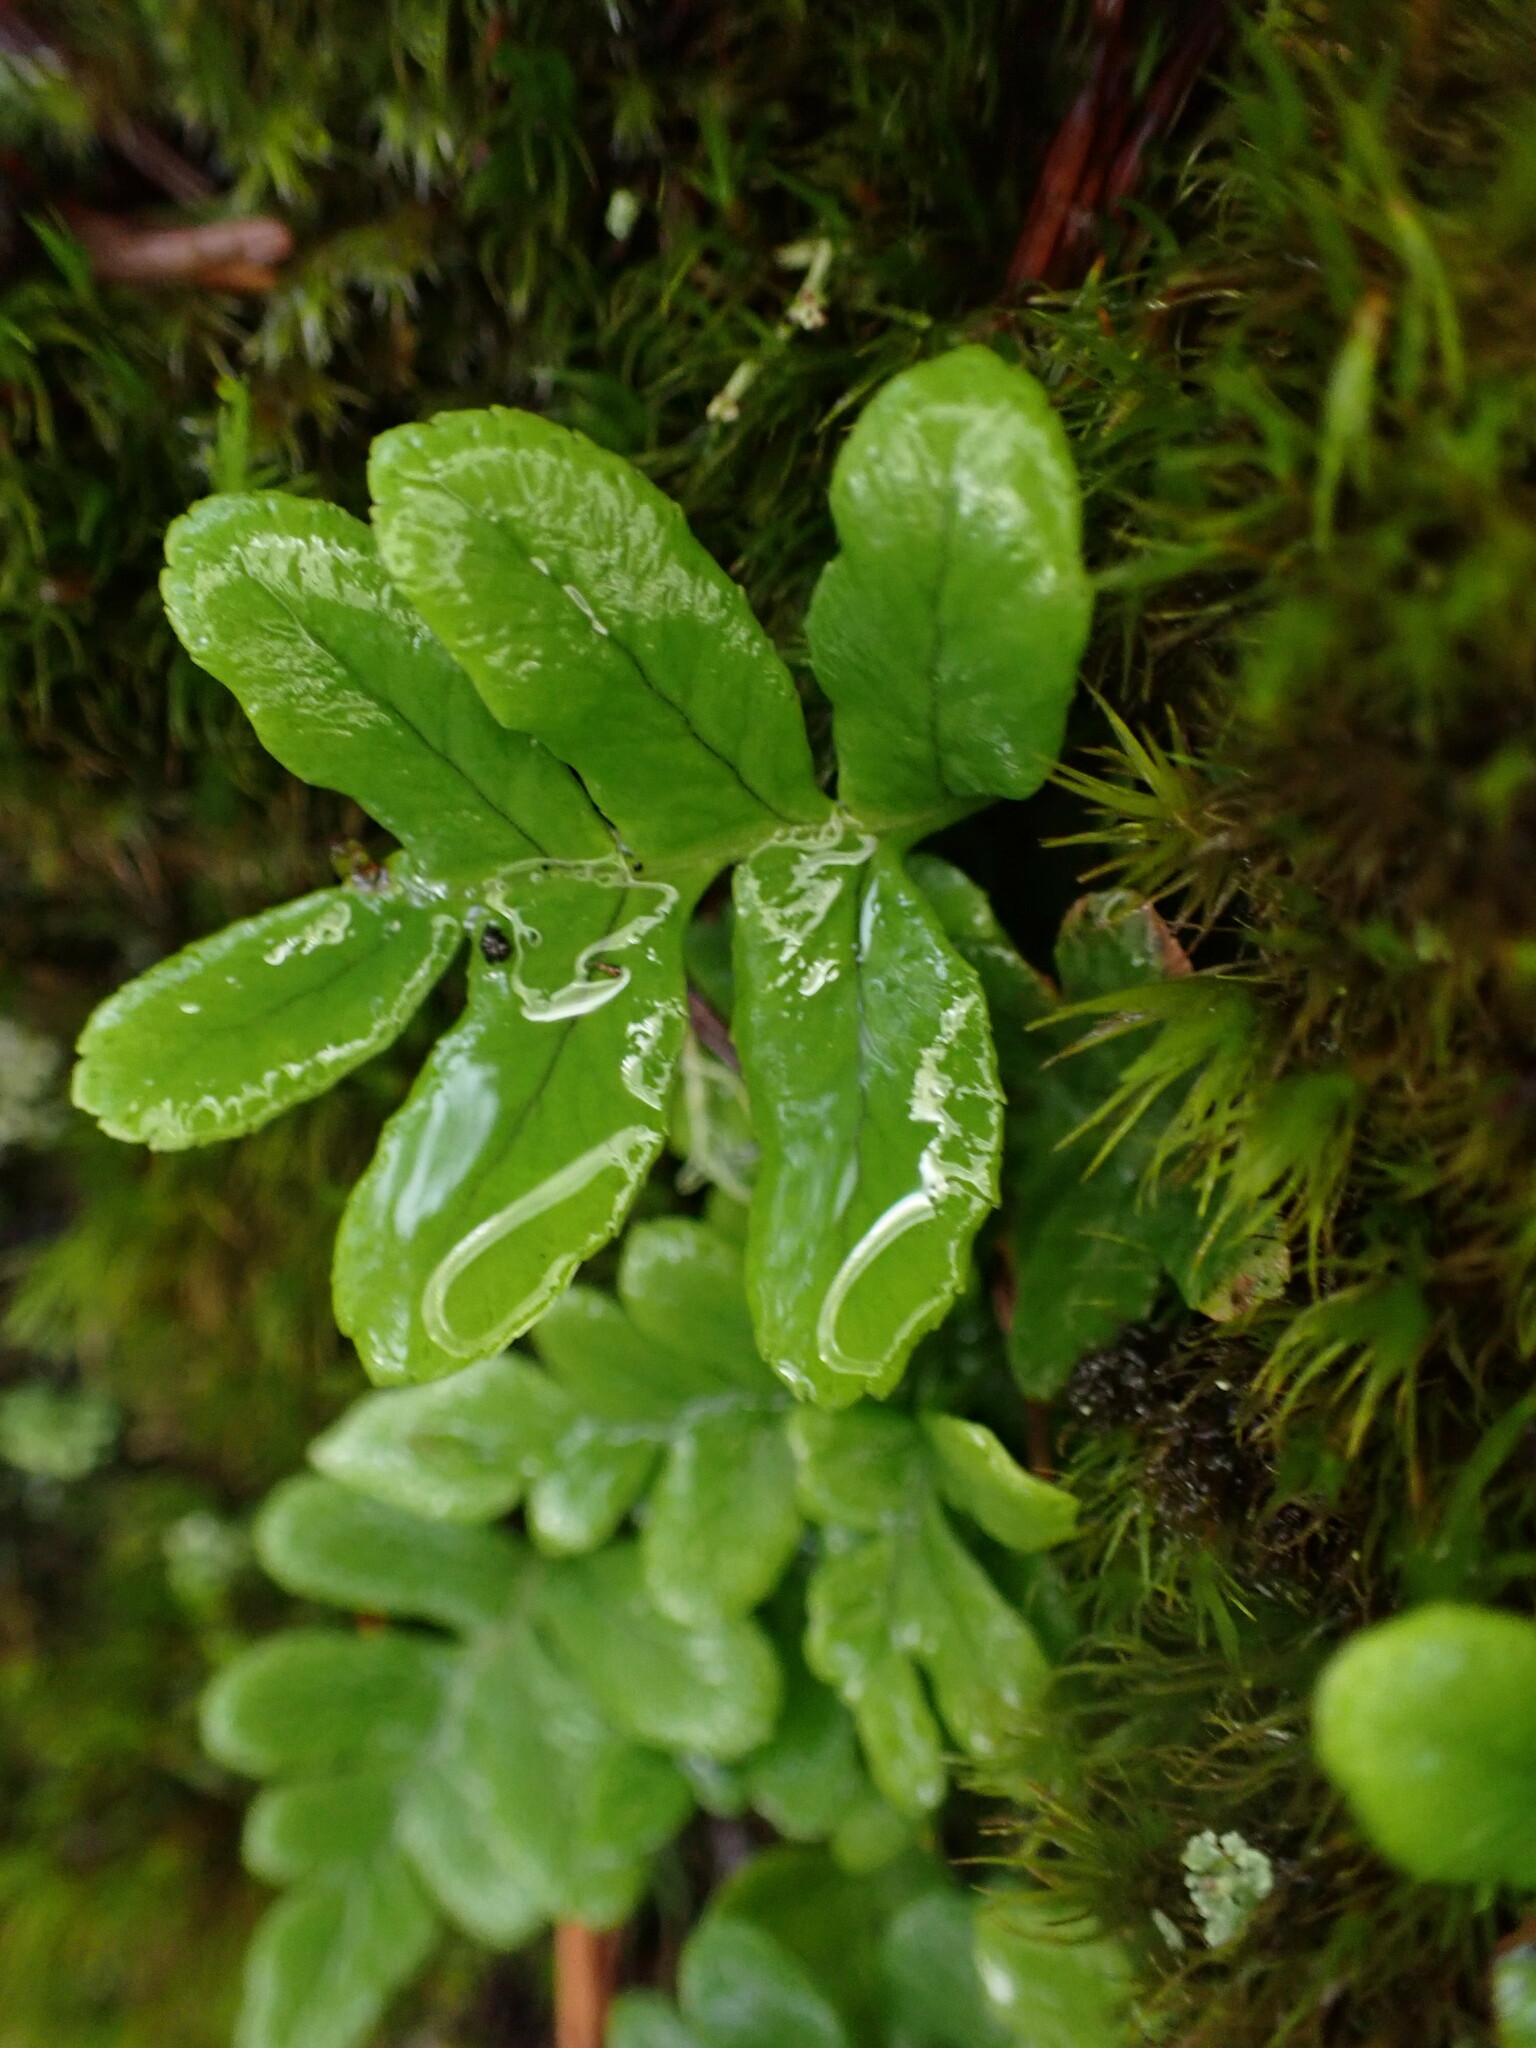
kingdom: Plantae
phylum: Tracheophyta
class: Polypodiopsida
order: Polypodiales
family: Polypodiaceae
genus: Polypodium
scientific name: Polypodium glycyrrhiza
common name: Licorice fern
